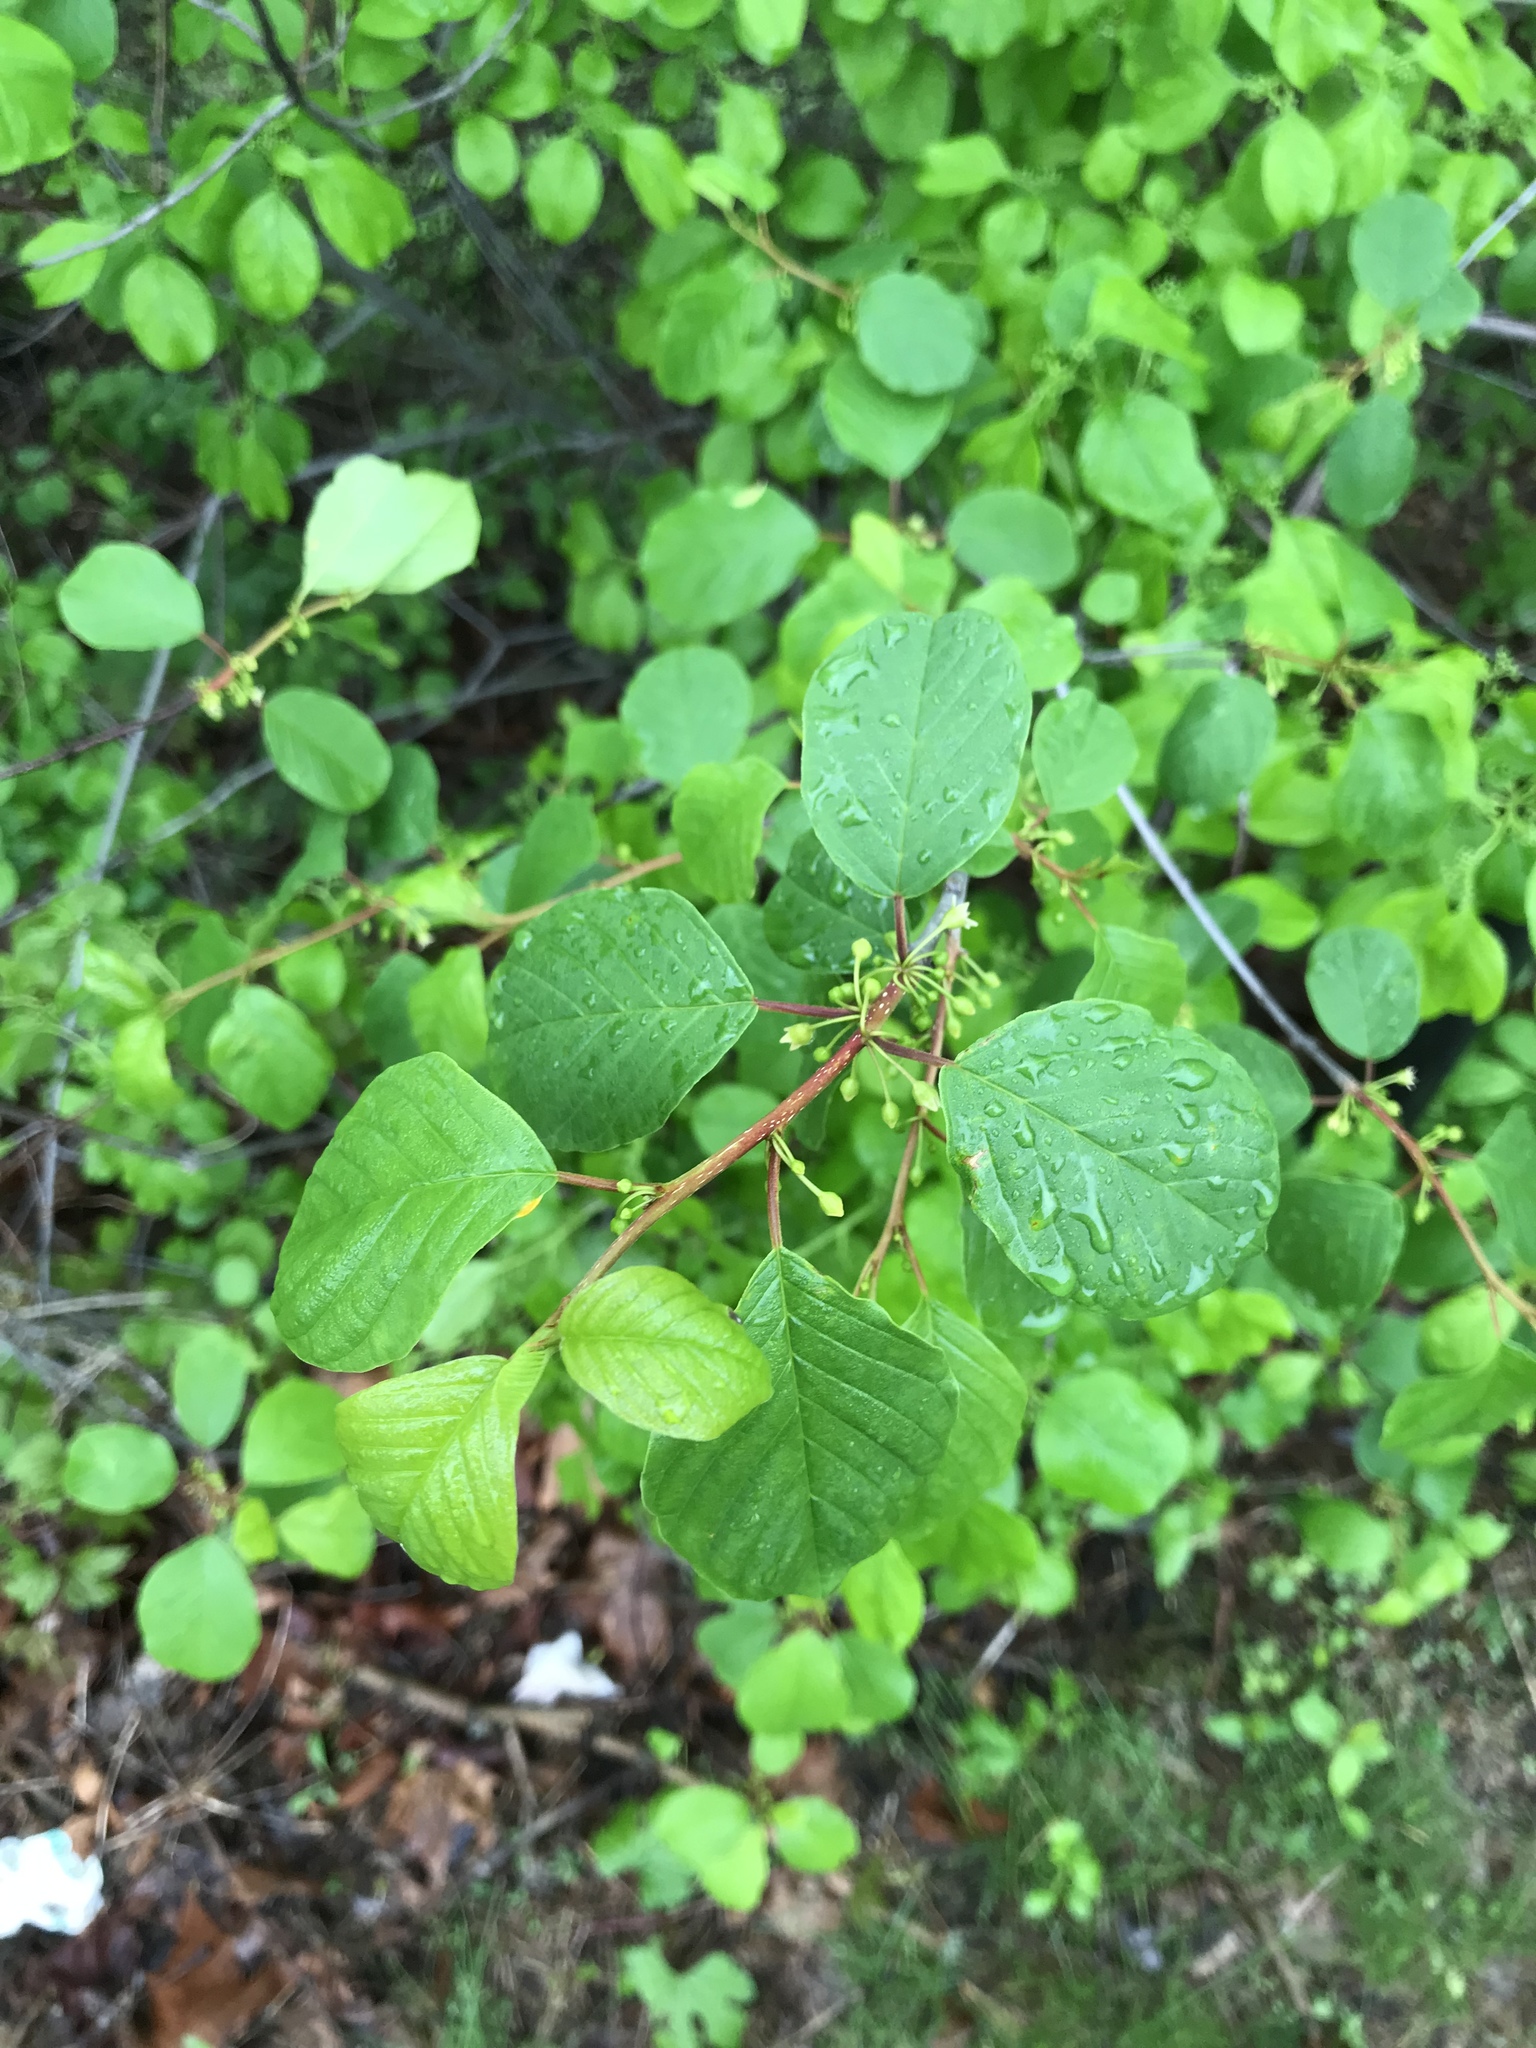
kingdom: Plantae
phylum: Tracheophyta
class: Magnoliopsida
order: Rosales
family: Rhamnaceae
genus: Frangula
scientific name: Frangula alnus
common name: Alder buckthorn
